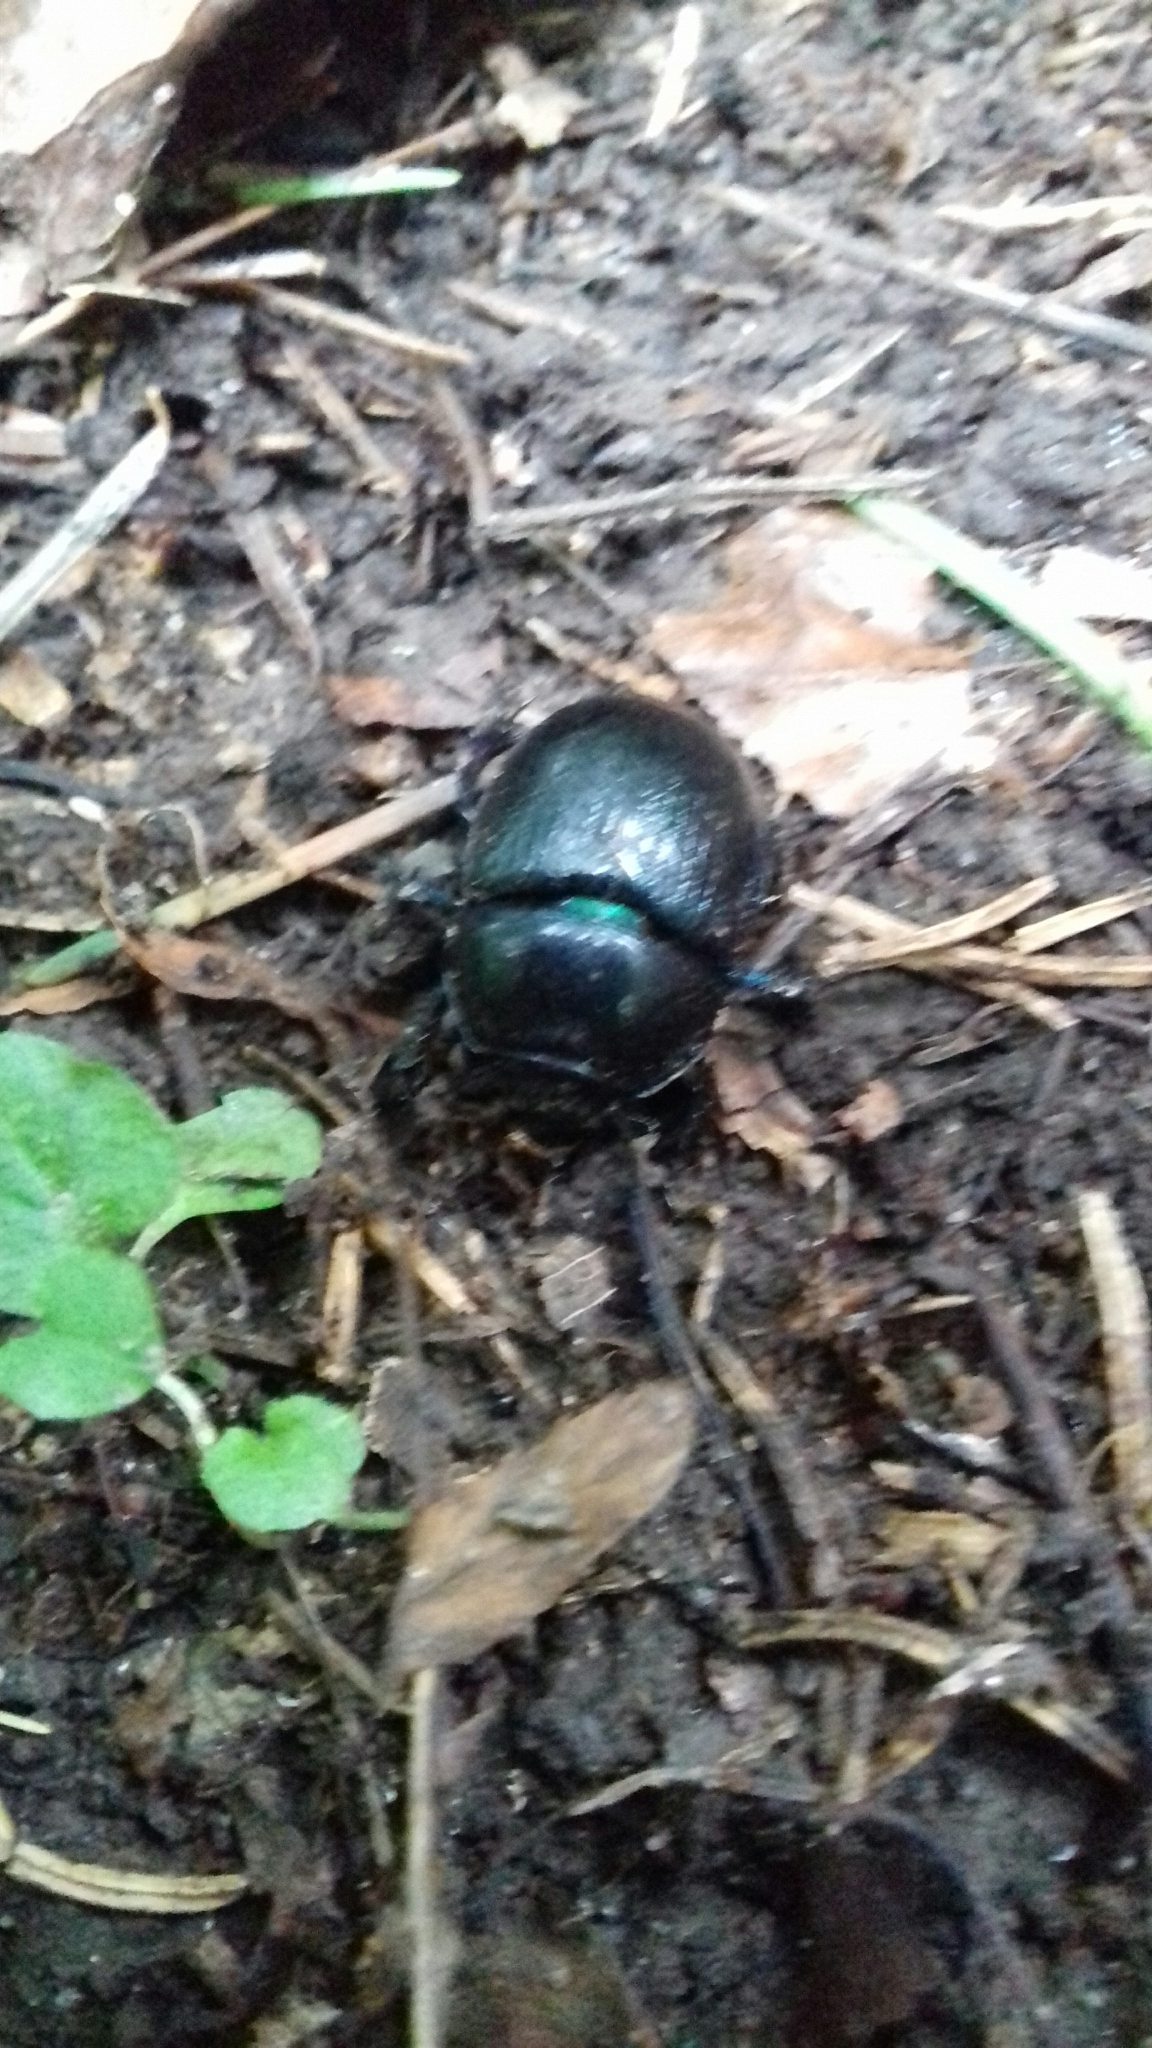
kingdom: Animalia
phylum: Arthropoda
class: Insecta
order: Coleoptera
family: Geotrupidae
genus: Anoplotrupes
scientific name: Anoplotrupes stercorosus
